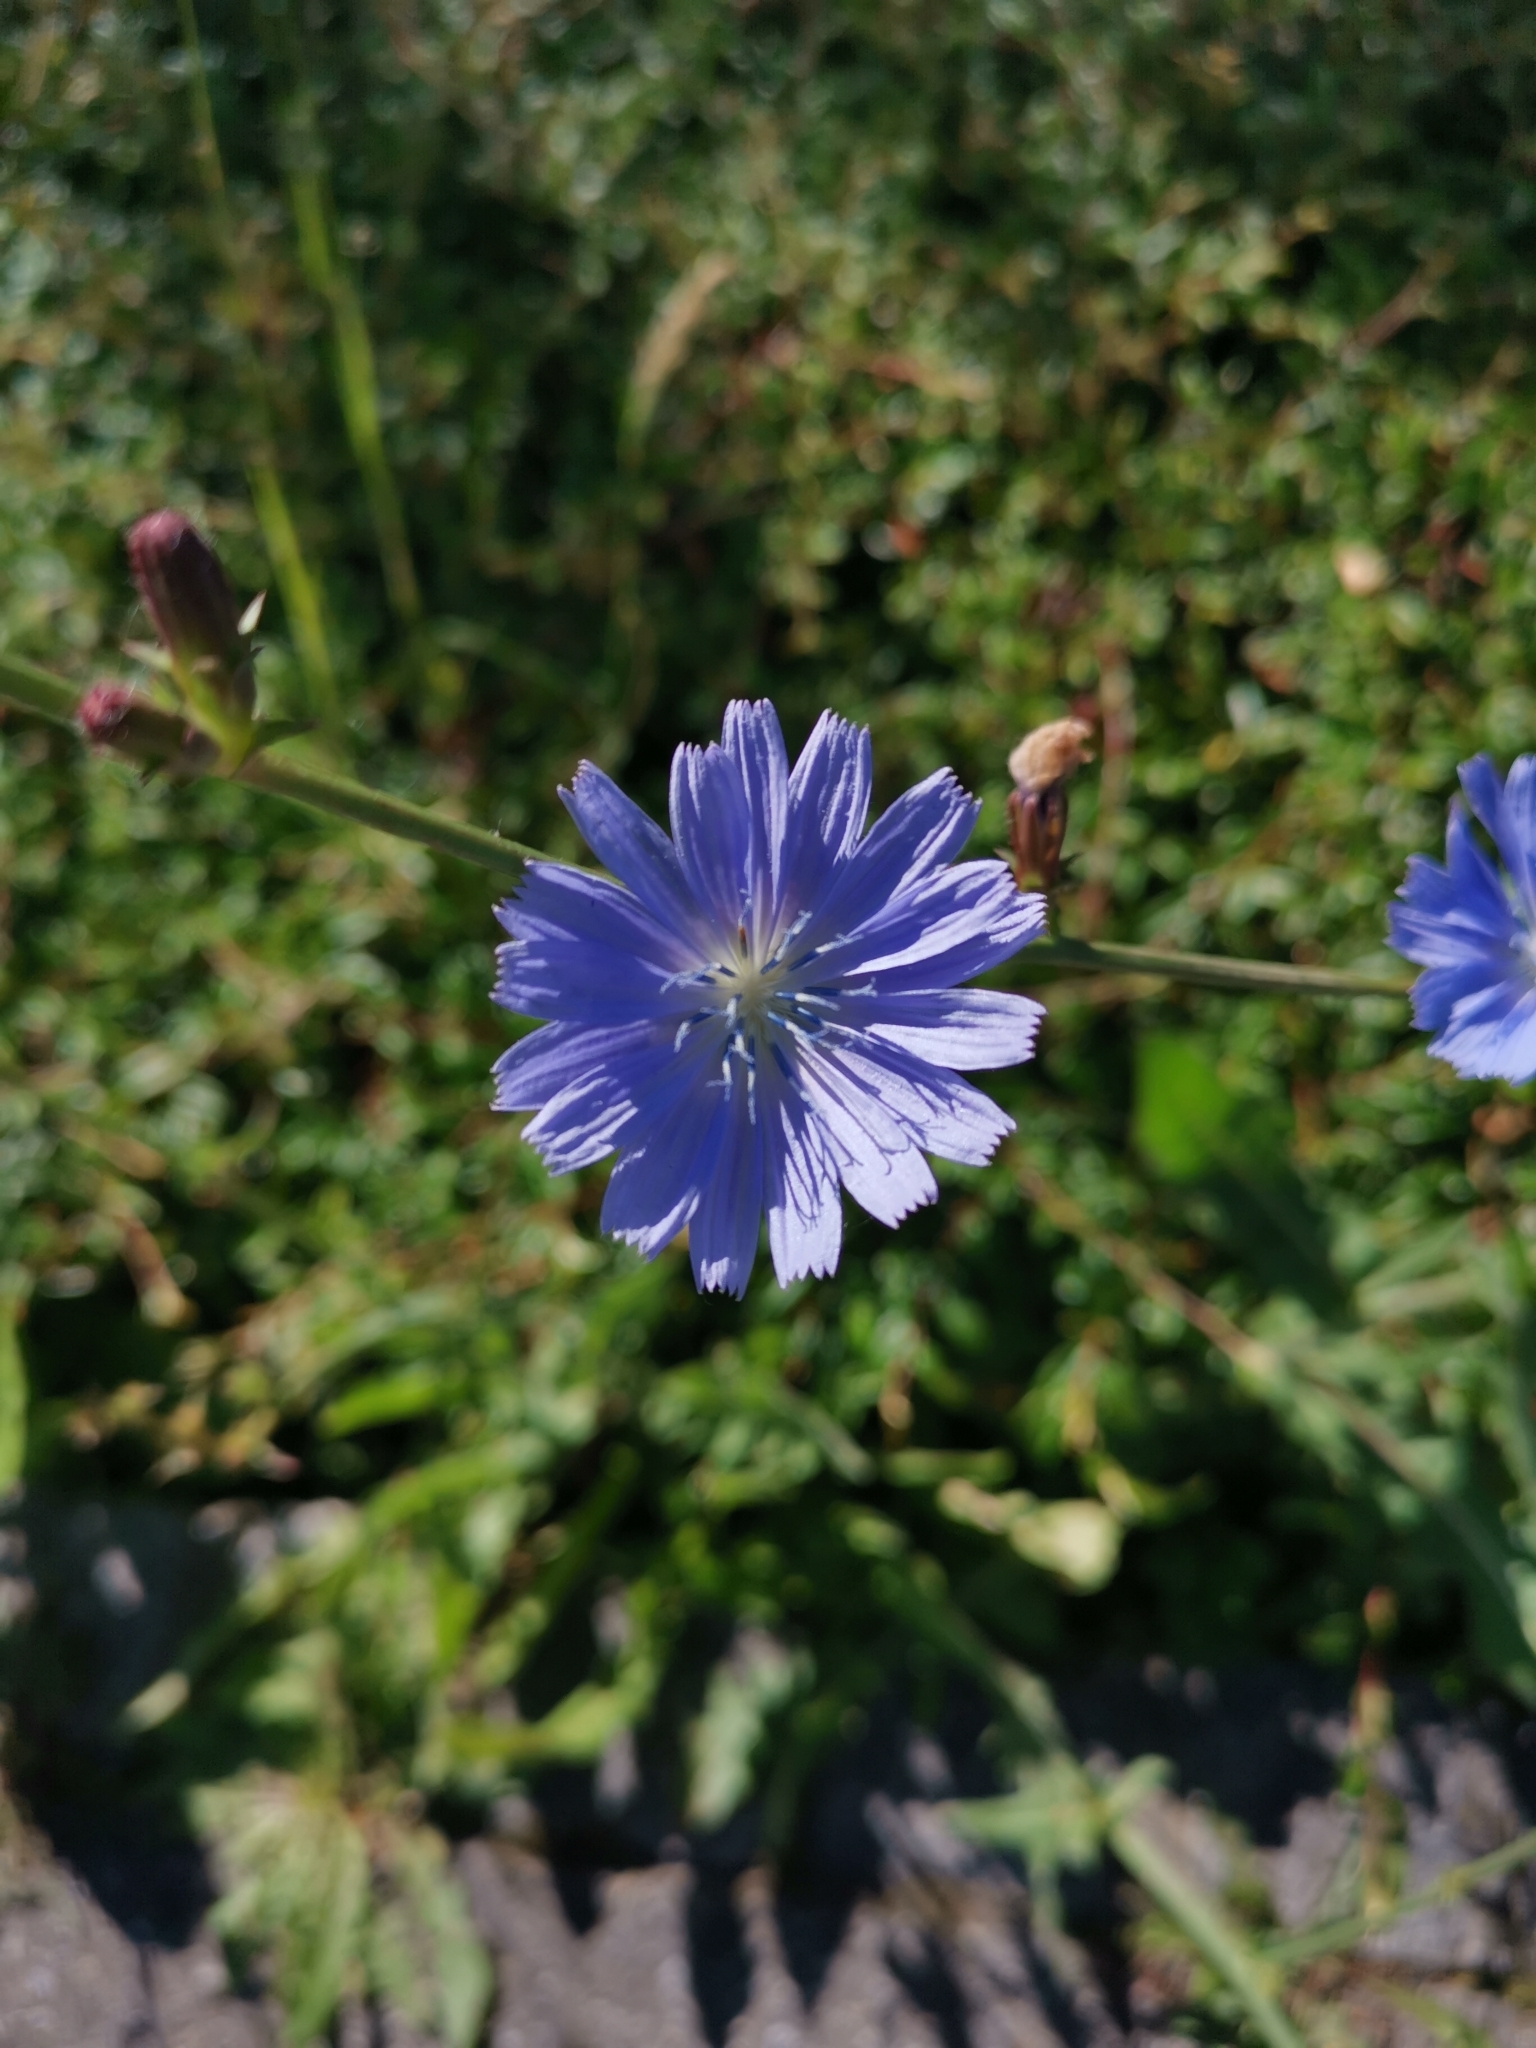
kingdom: Plantae
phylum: Tracheophyta
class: Magnoliopsida
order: Asterales
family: Asteraceae
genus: Cichorium
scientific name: Cichorium intybus
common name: Chicory
